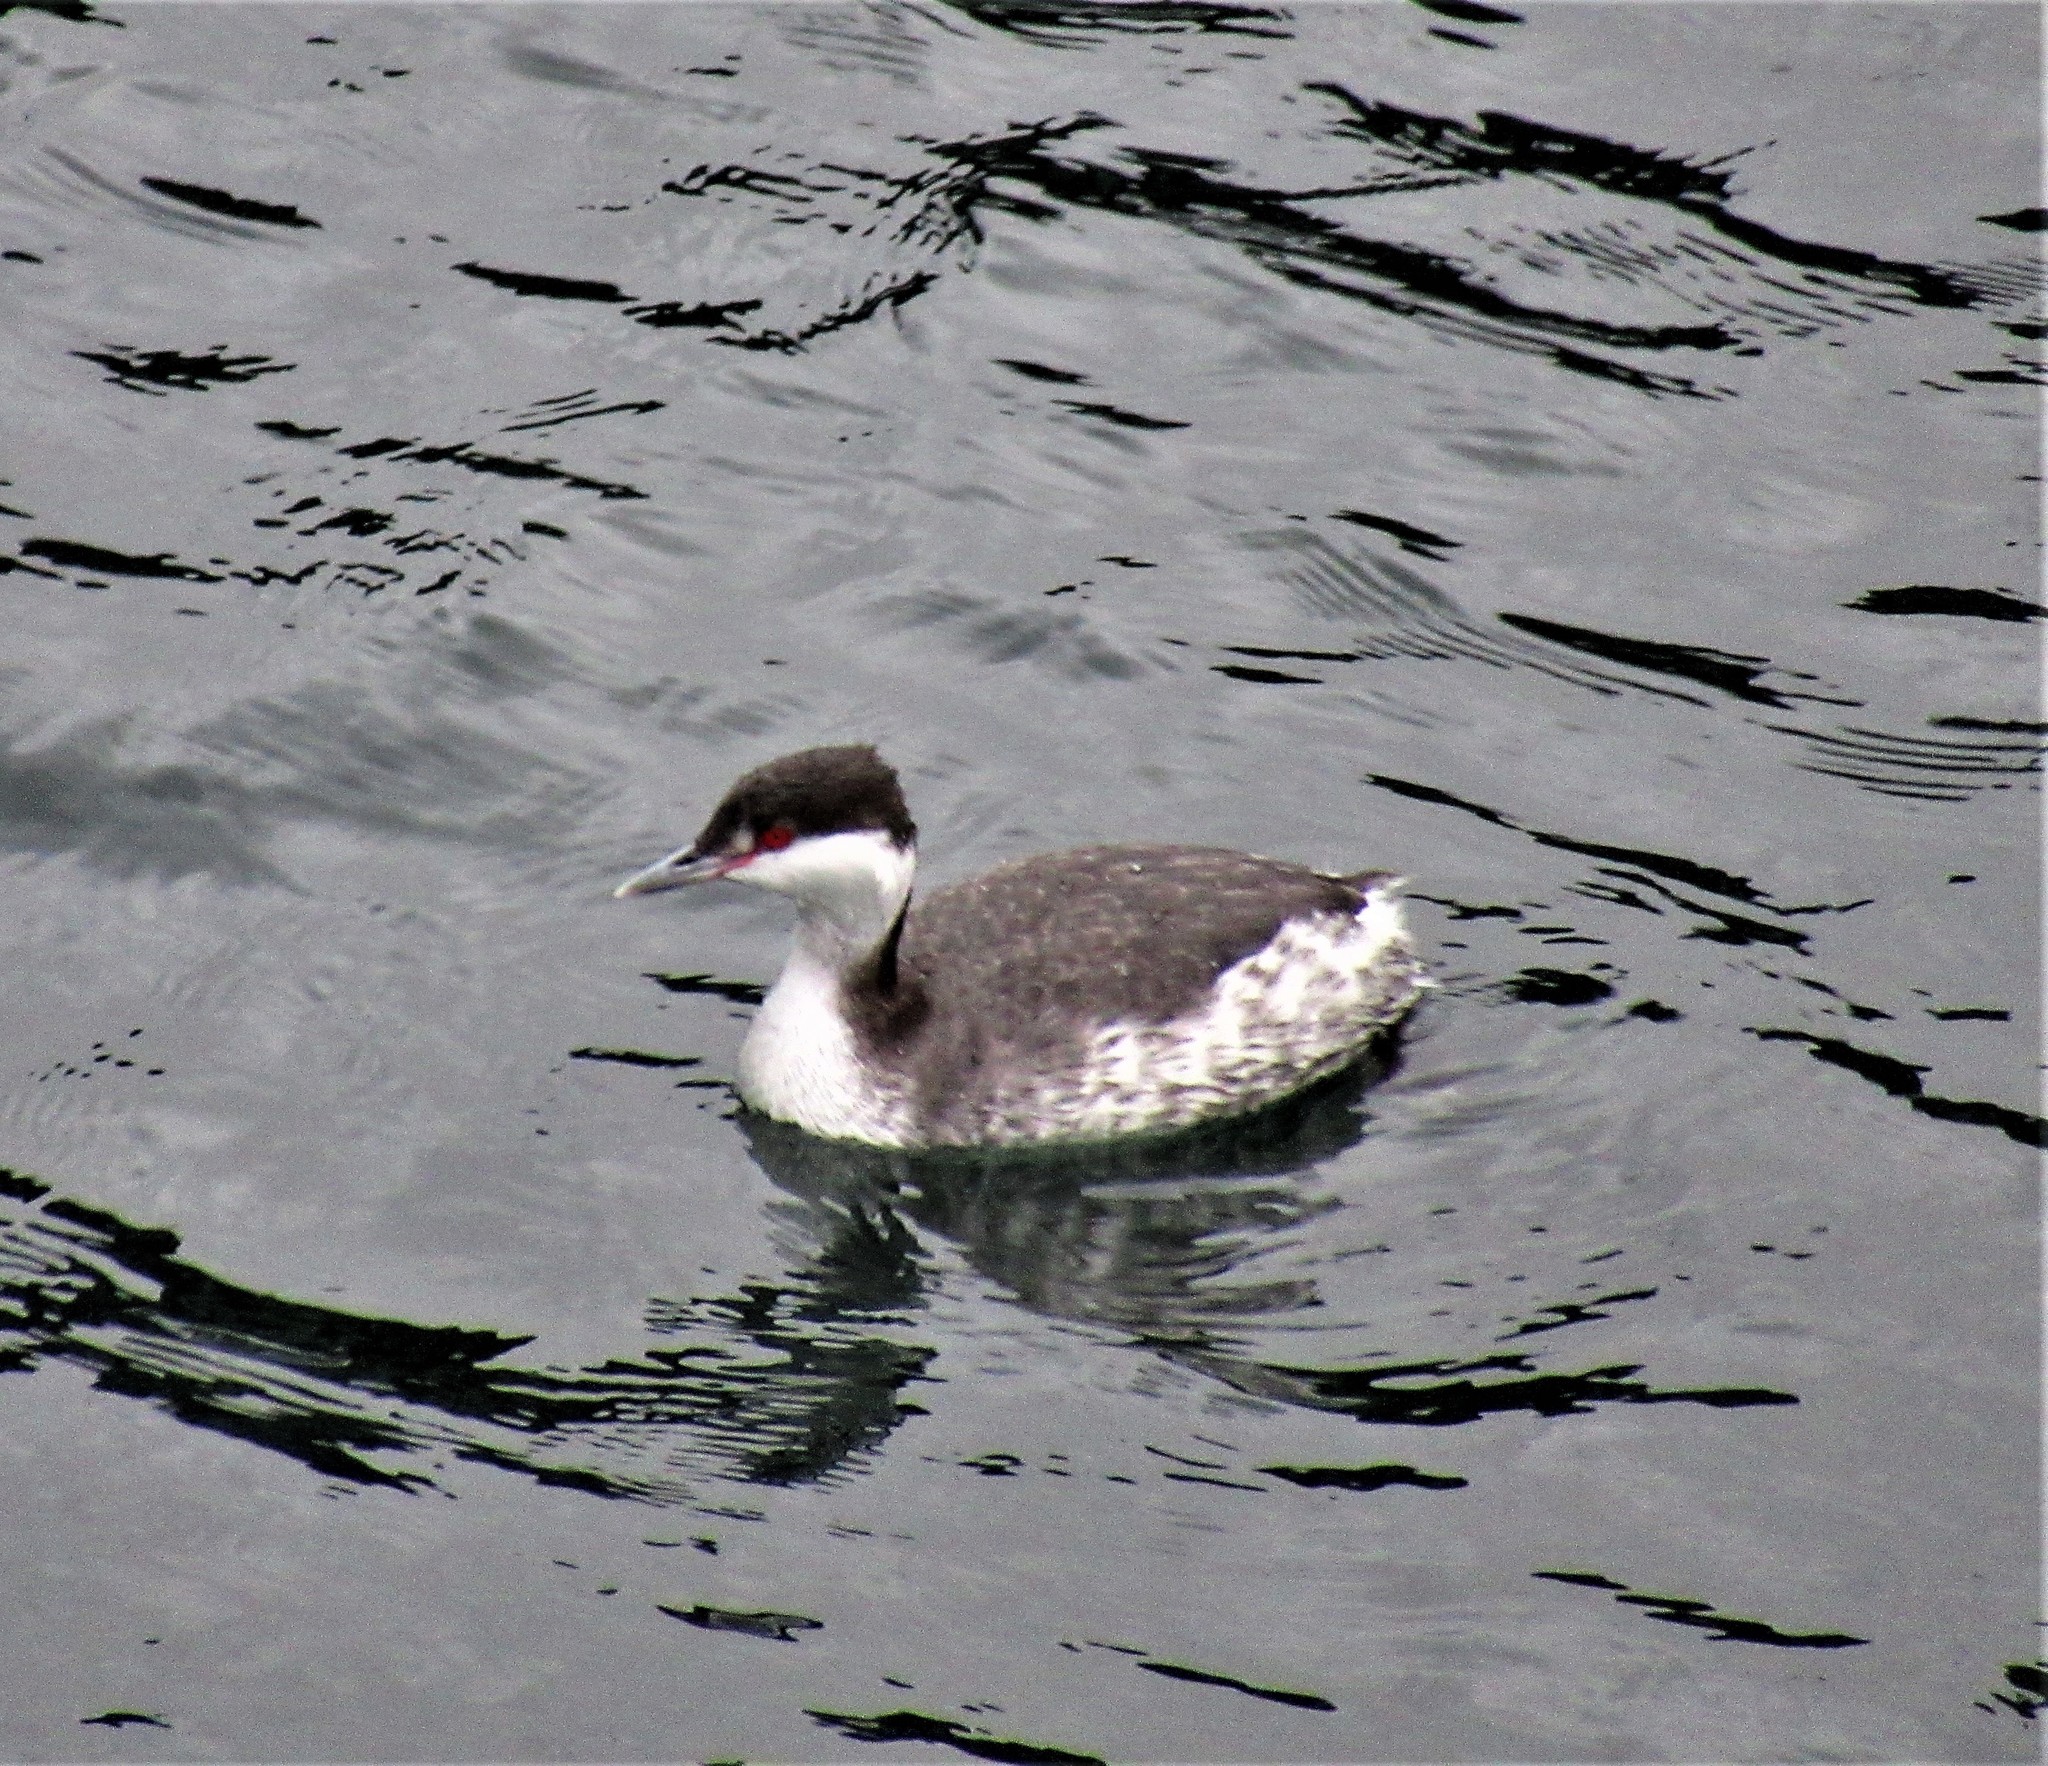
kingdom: Animalia
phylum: Chordata
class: Aves
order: Podicipediformes
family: Podicipedidae
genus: Podiceps
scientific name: Podiceps auritus
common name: Horned grebe
